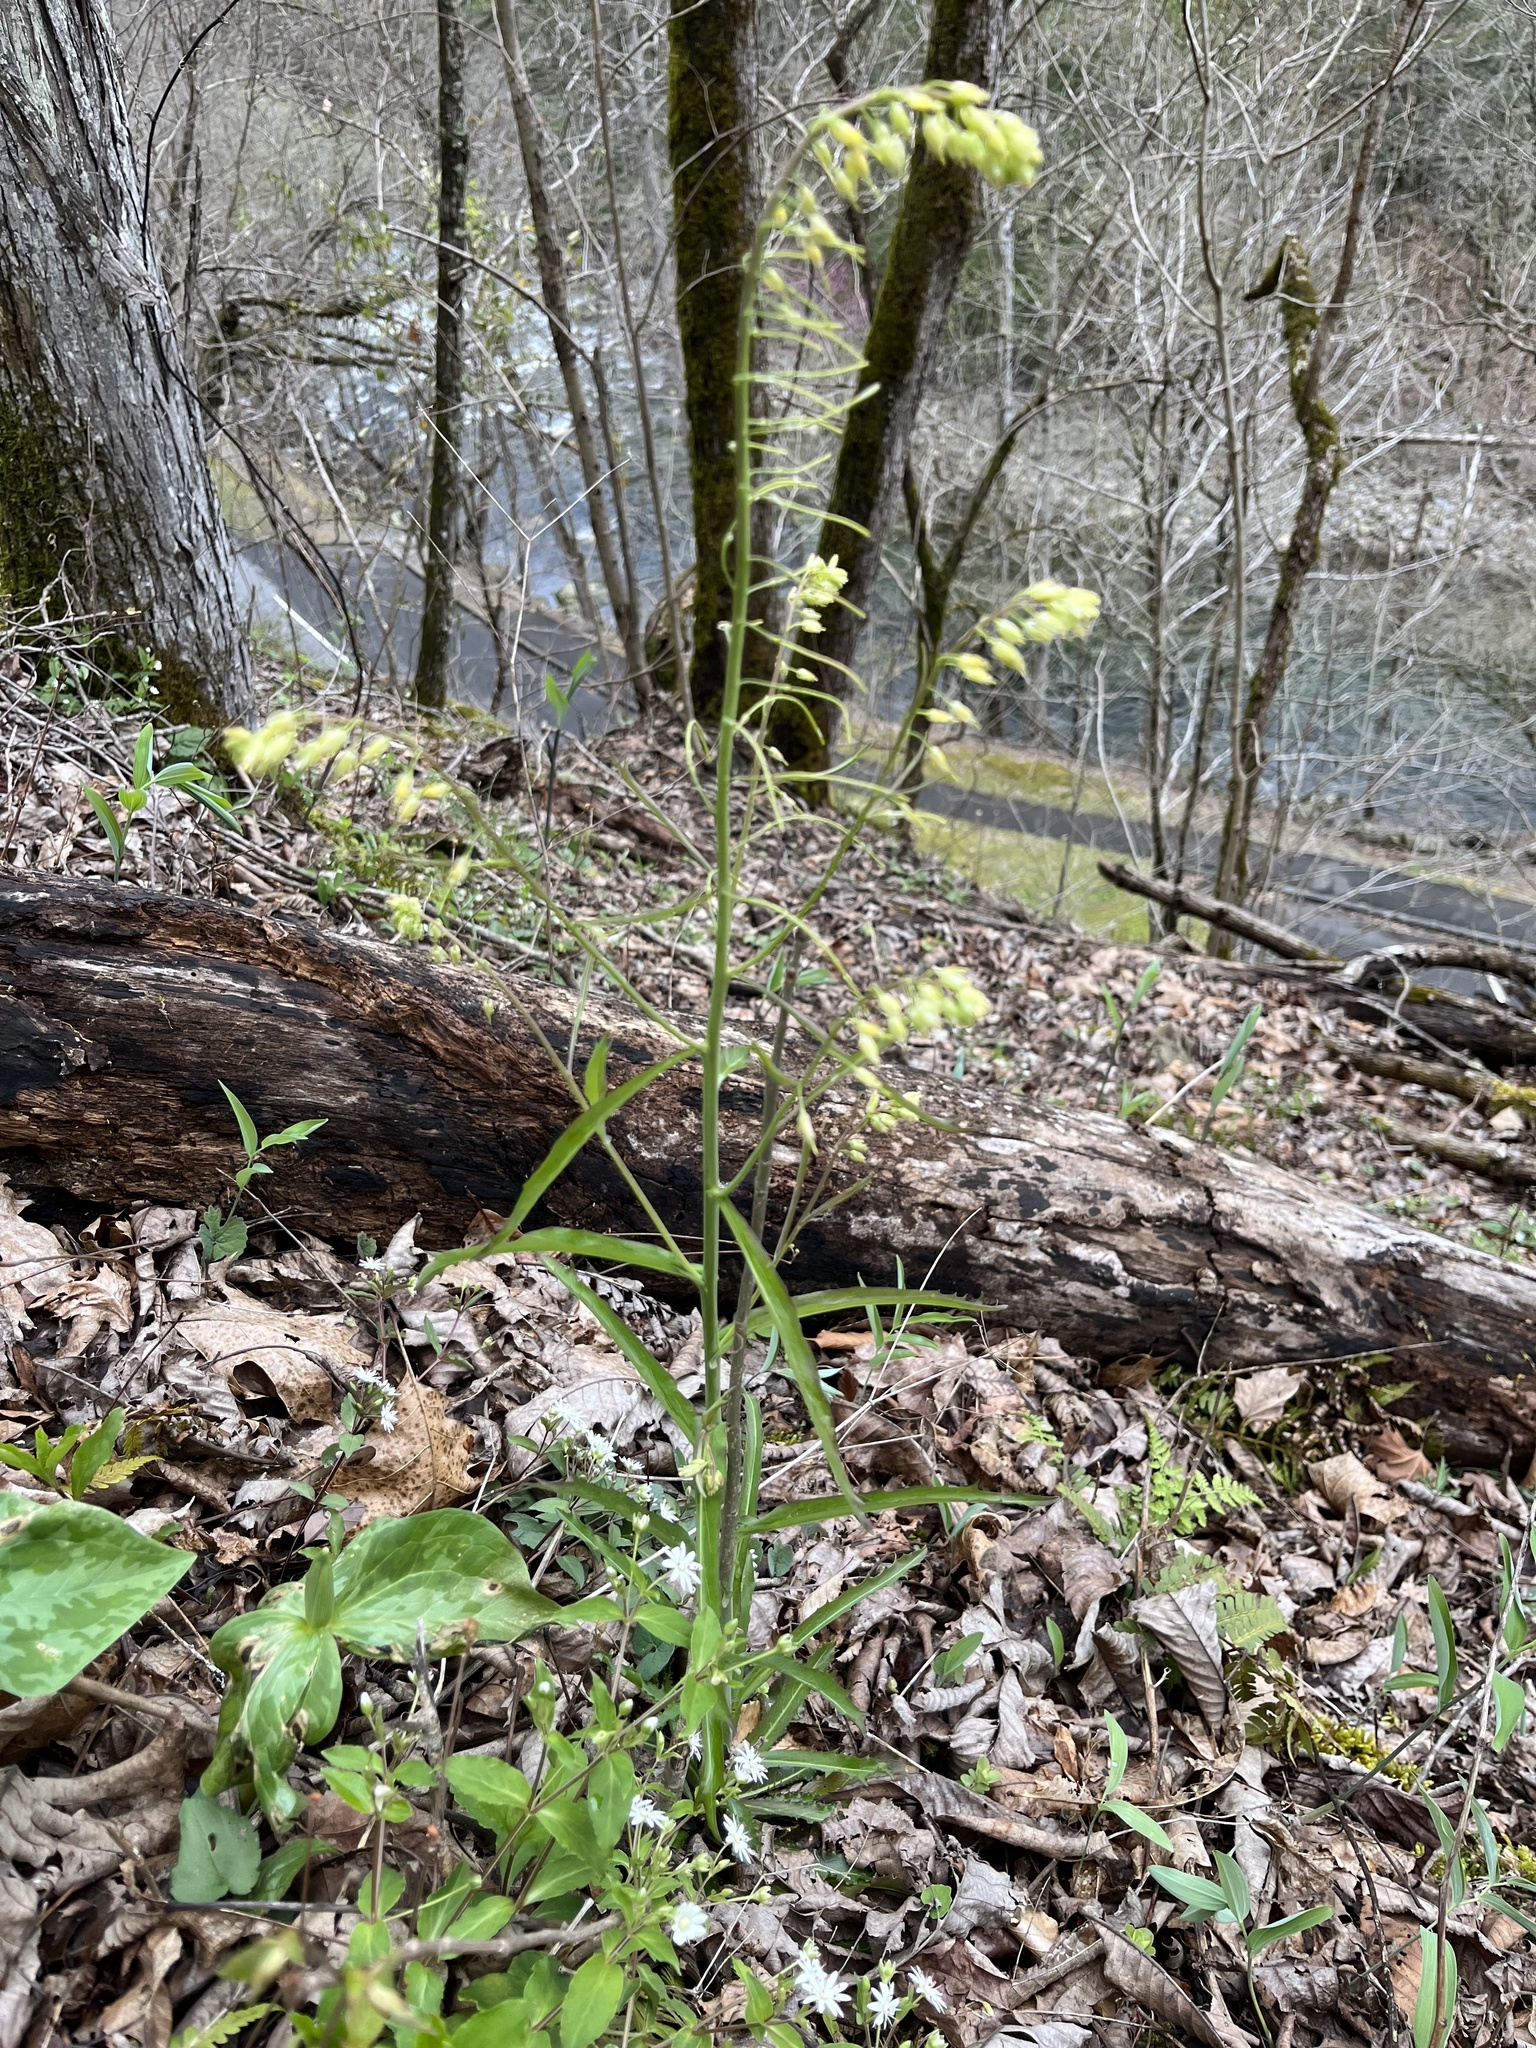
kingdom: Plantae
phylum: Tracheophyta
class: Magnoliopsida
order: Brassicales
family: Brassicaceae
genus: Borodinia
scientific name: Borodinia laevigata
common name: Smooth rockcress
